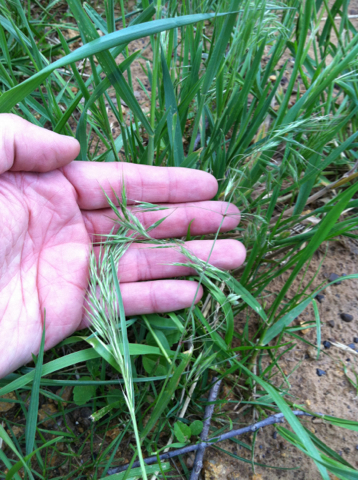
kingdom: Plantae
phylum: Tracheophyta
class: Liliopsida
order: Poales
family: Poaceae
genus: Bromus
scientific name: Bromus tectorum
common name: Cheatgrass
